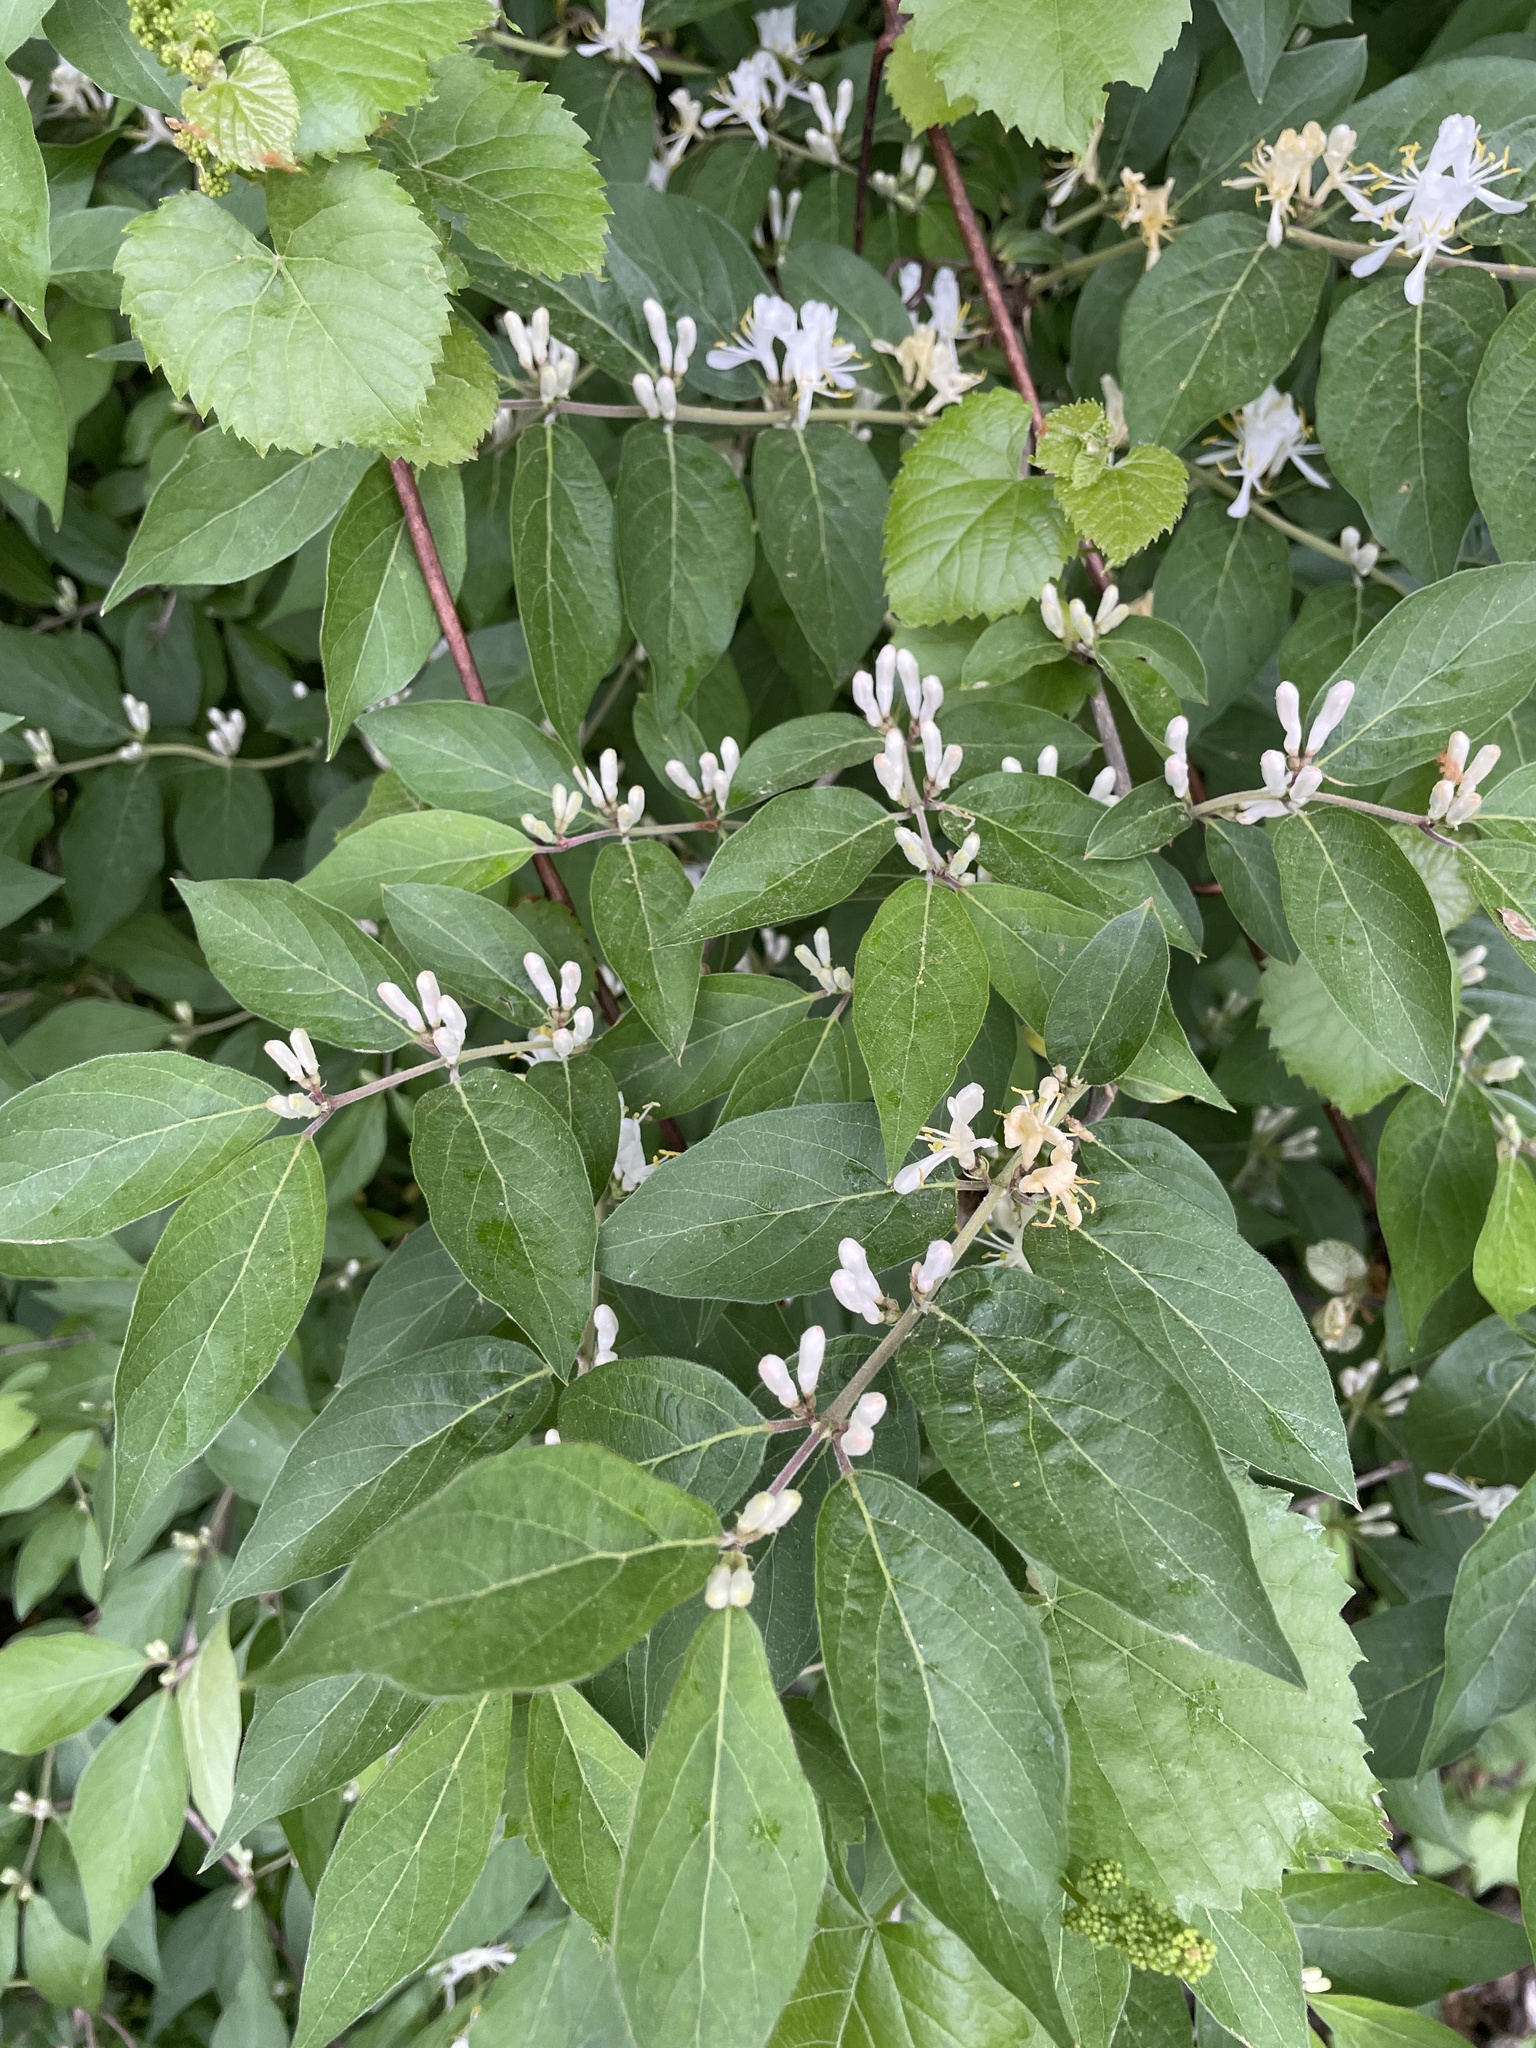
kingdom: Plantae
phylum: Tracheophyta
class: Magnoliopsida
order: Dipsacales
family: Caprifoliaceae
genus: Lonicera
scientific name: Lonicera maackii
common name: Amur honeysuckle
